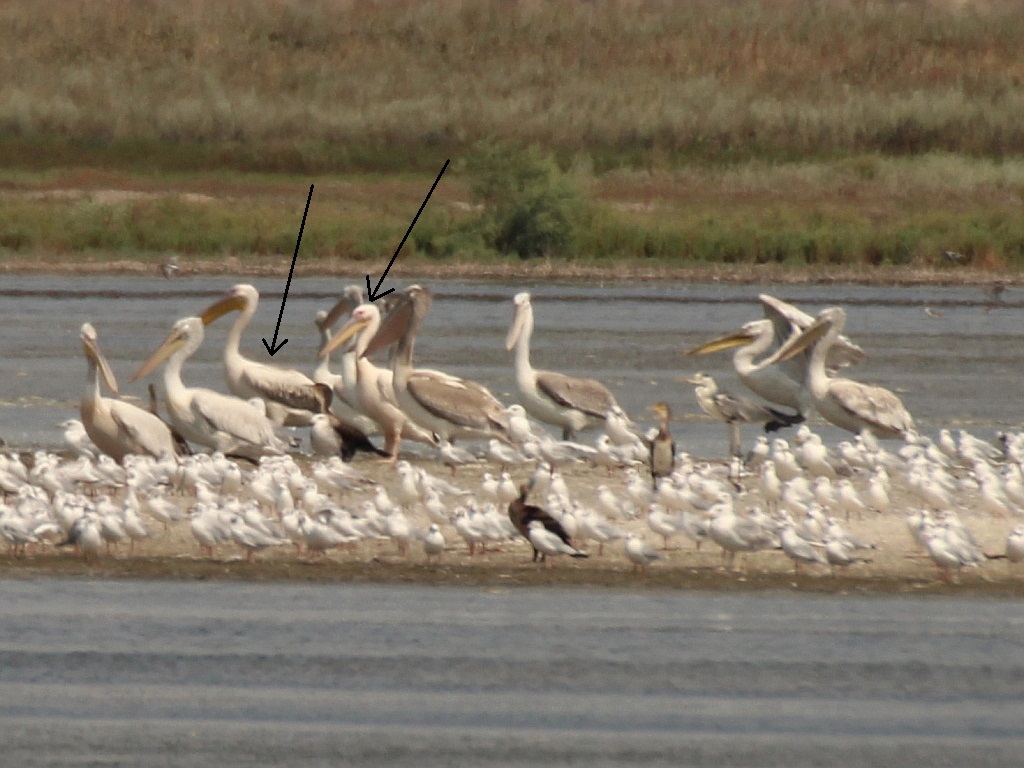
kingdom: Animalia
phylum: Chordata
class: Aves
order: Pelecaniformes
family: Pelecanidae
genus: Pelecanus
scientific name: Pelecanus onocrotalus
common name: Great white pelican
